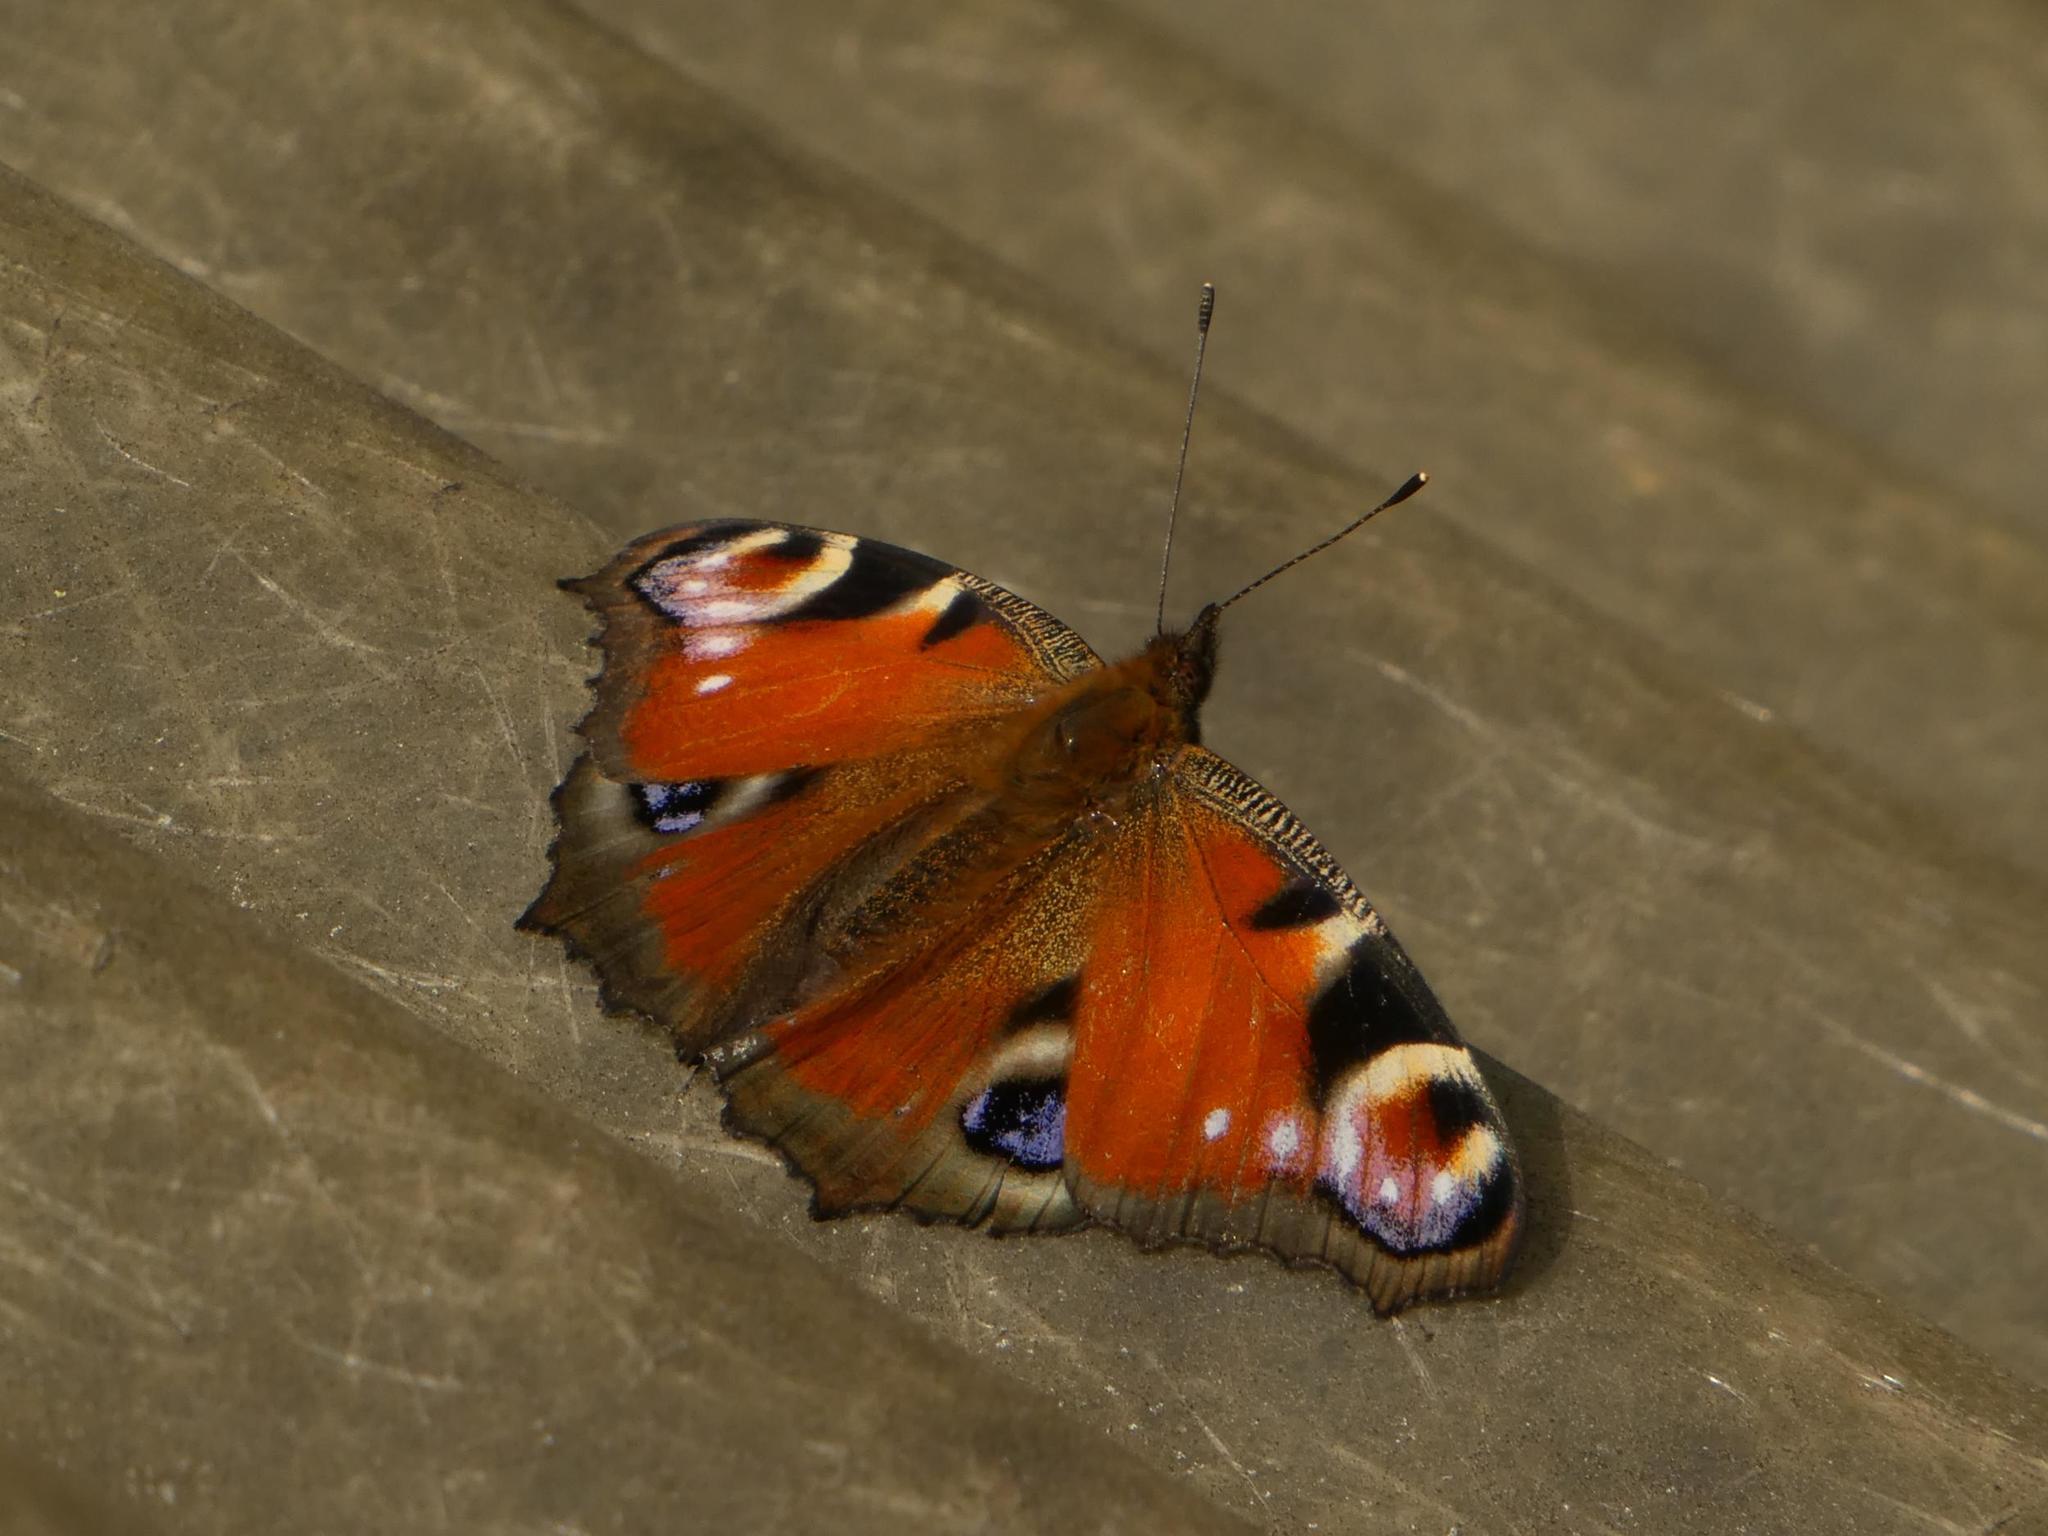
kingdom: Animalia
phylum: Arthropoda
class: Insecta
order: Lepidoptera
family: Nymphalidae
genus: Aglais
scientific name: Aglais io
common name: Peacock
